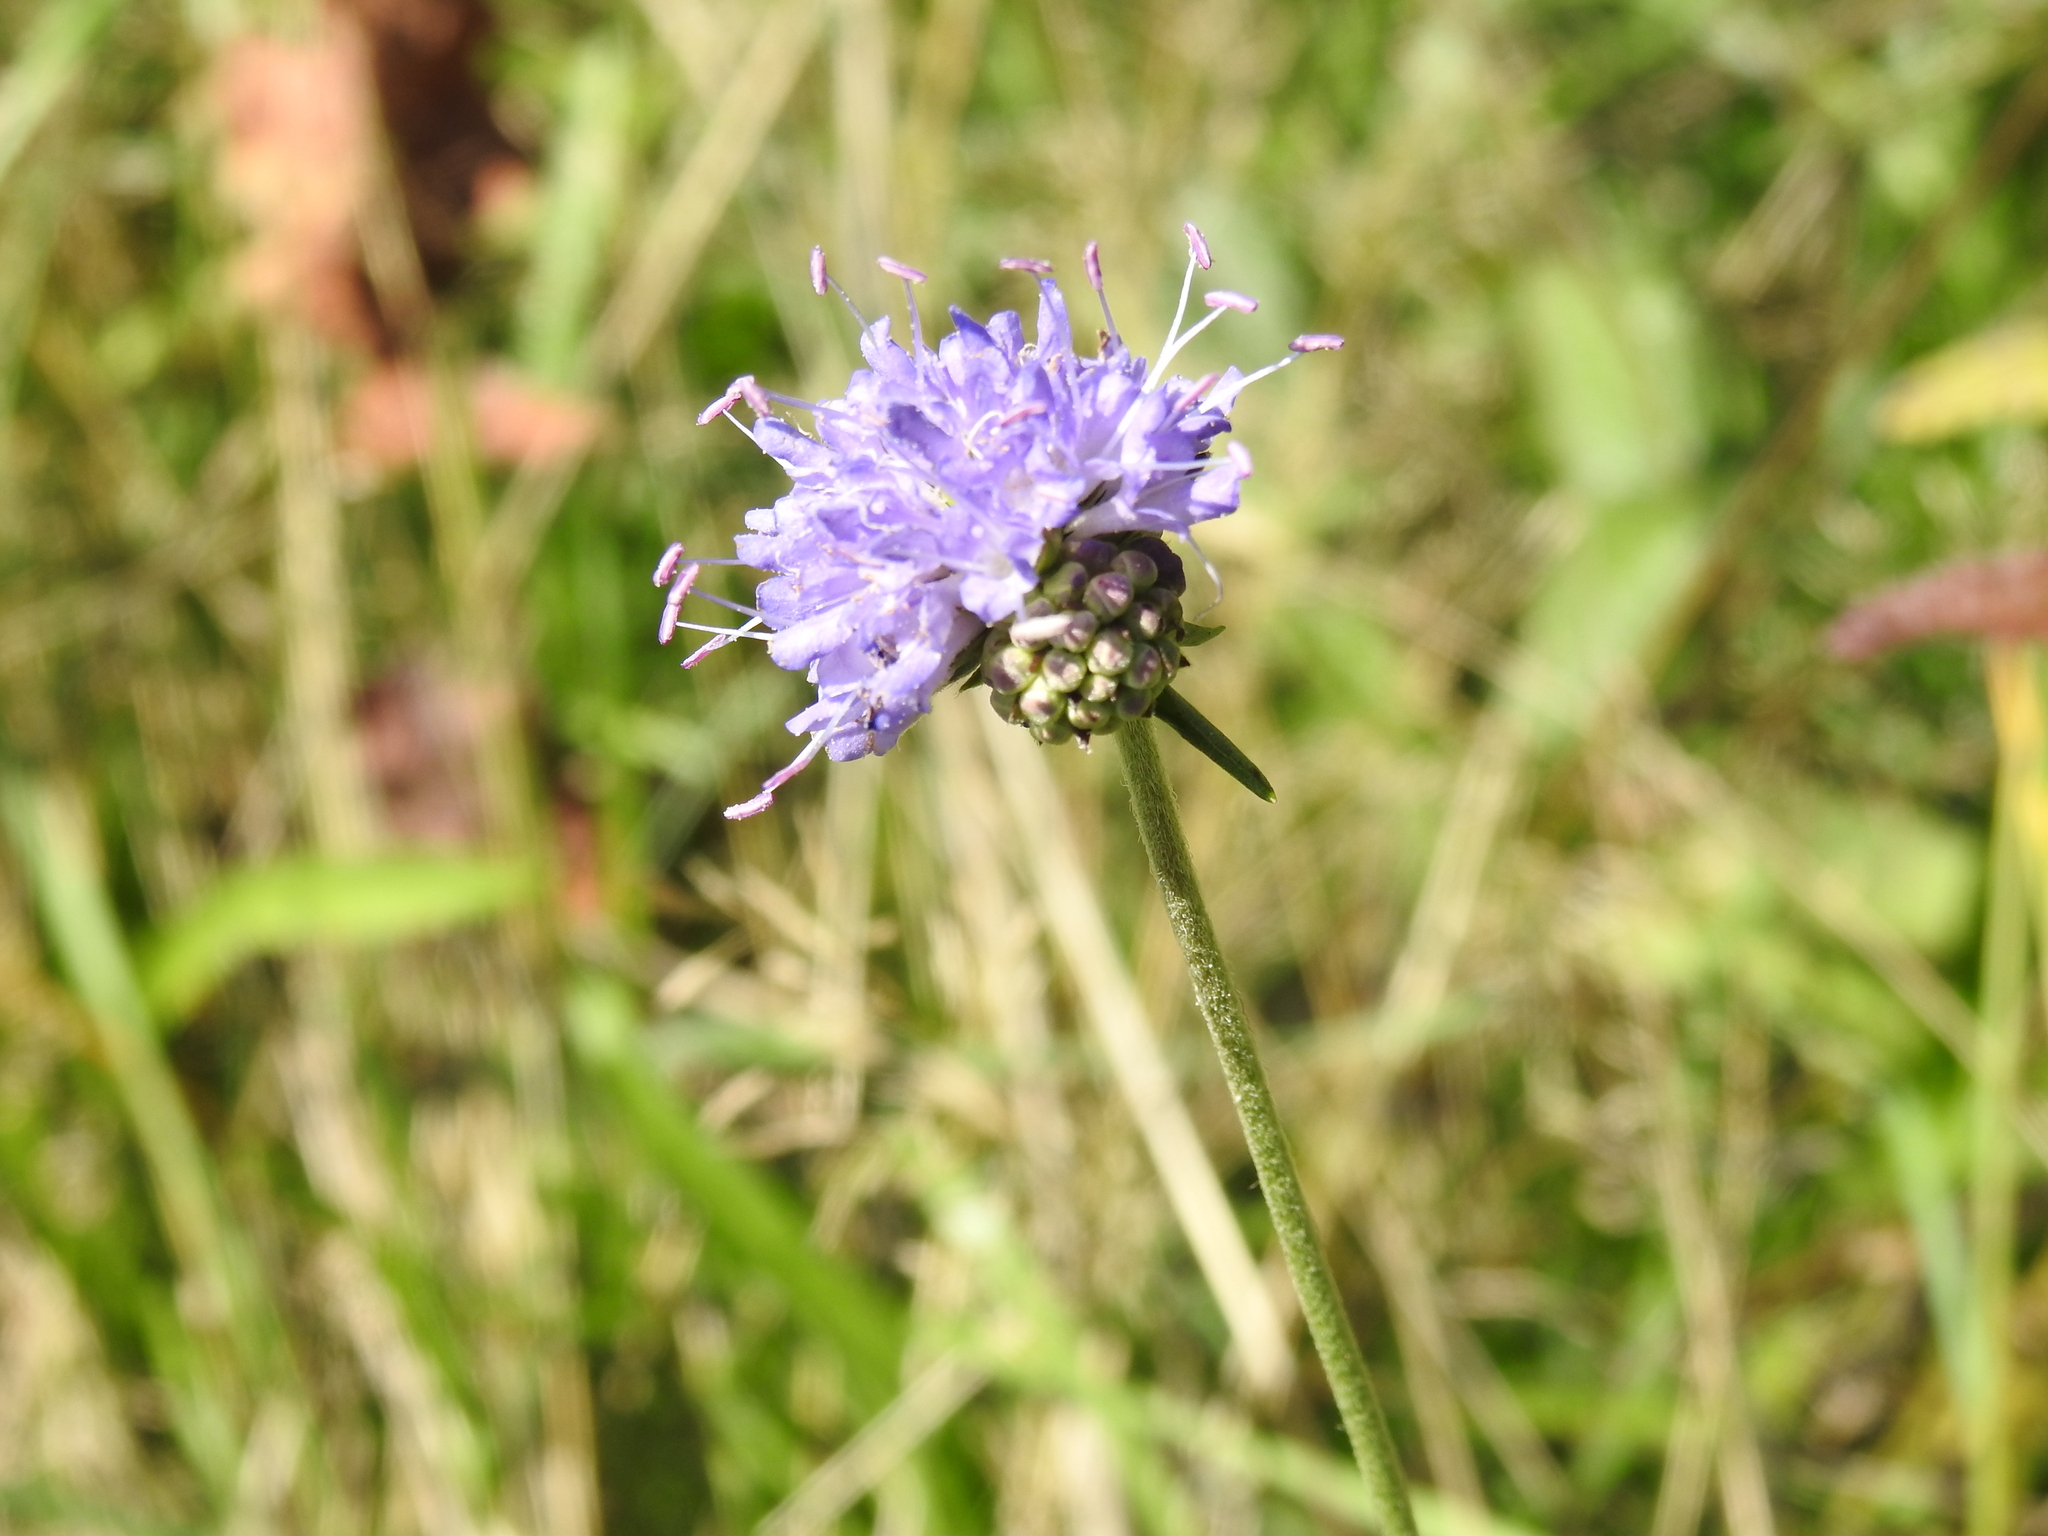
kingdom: Plantae
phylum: Tracheophyta
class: Magnoliopsida
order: Dipsacales
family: Caprifoliaceae
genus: Succisa
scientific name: Succisa pratensis
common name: Devil's-bit
